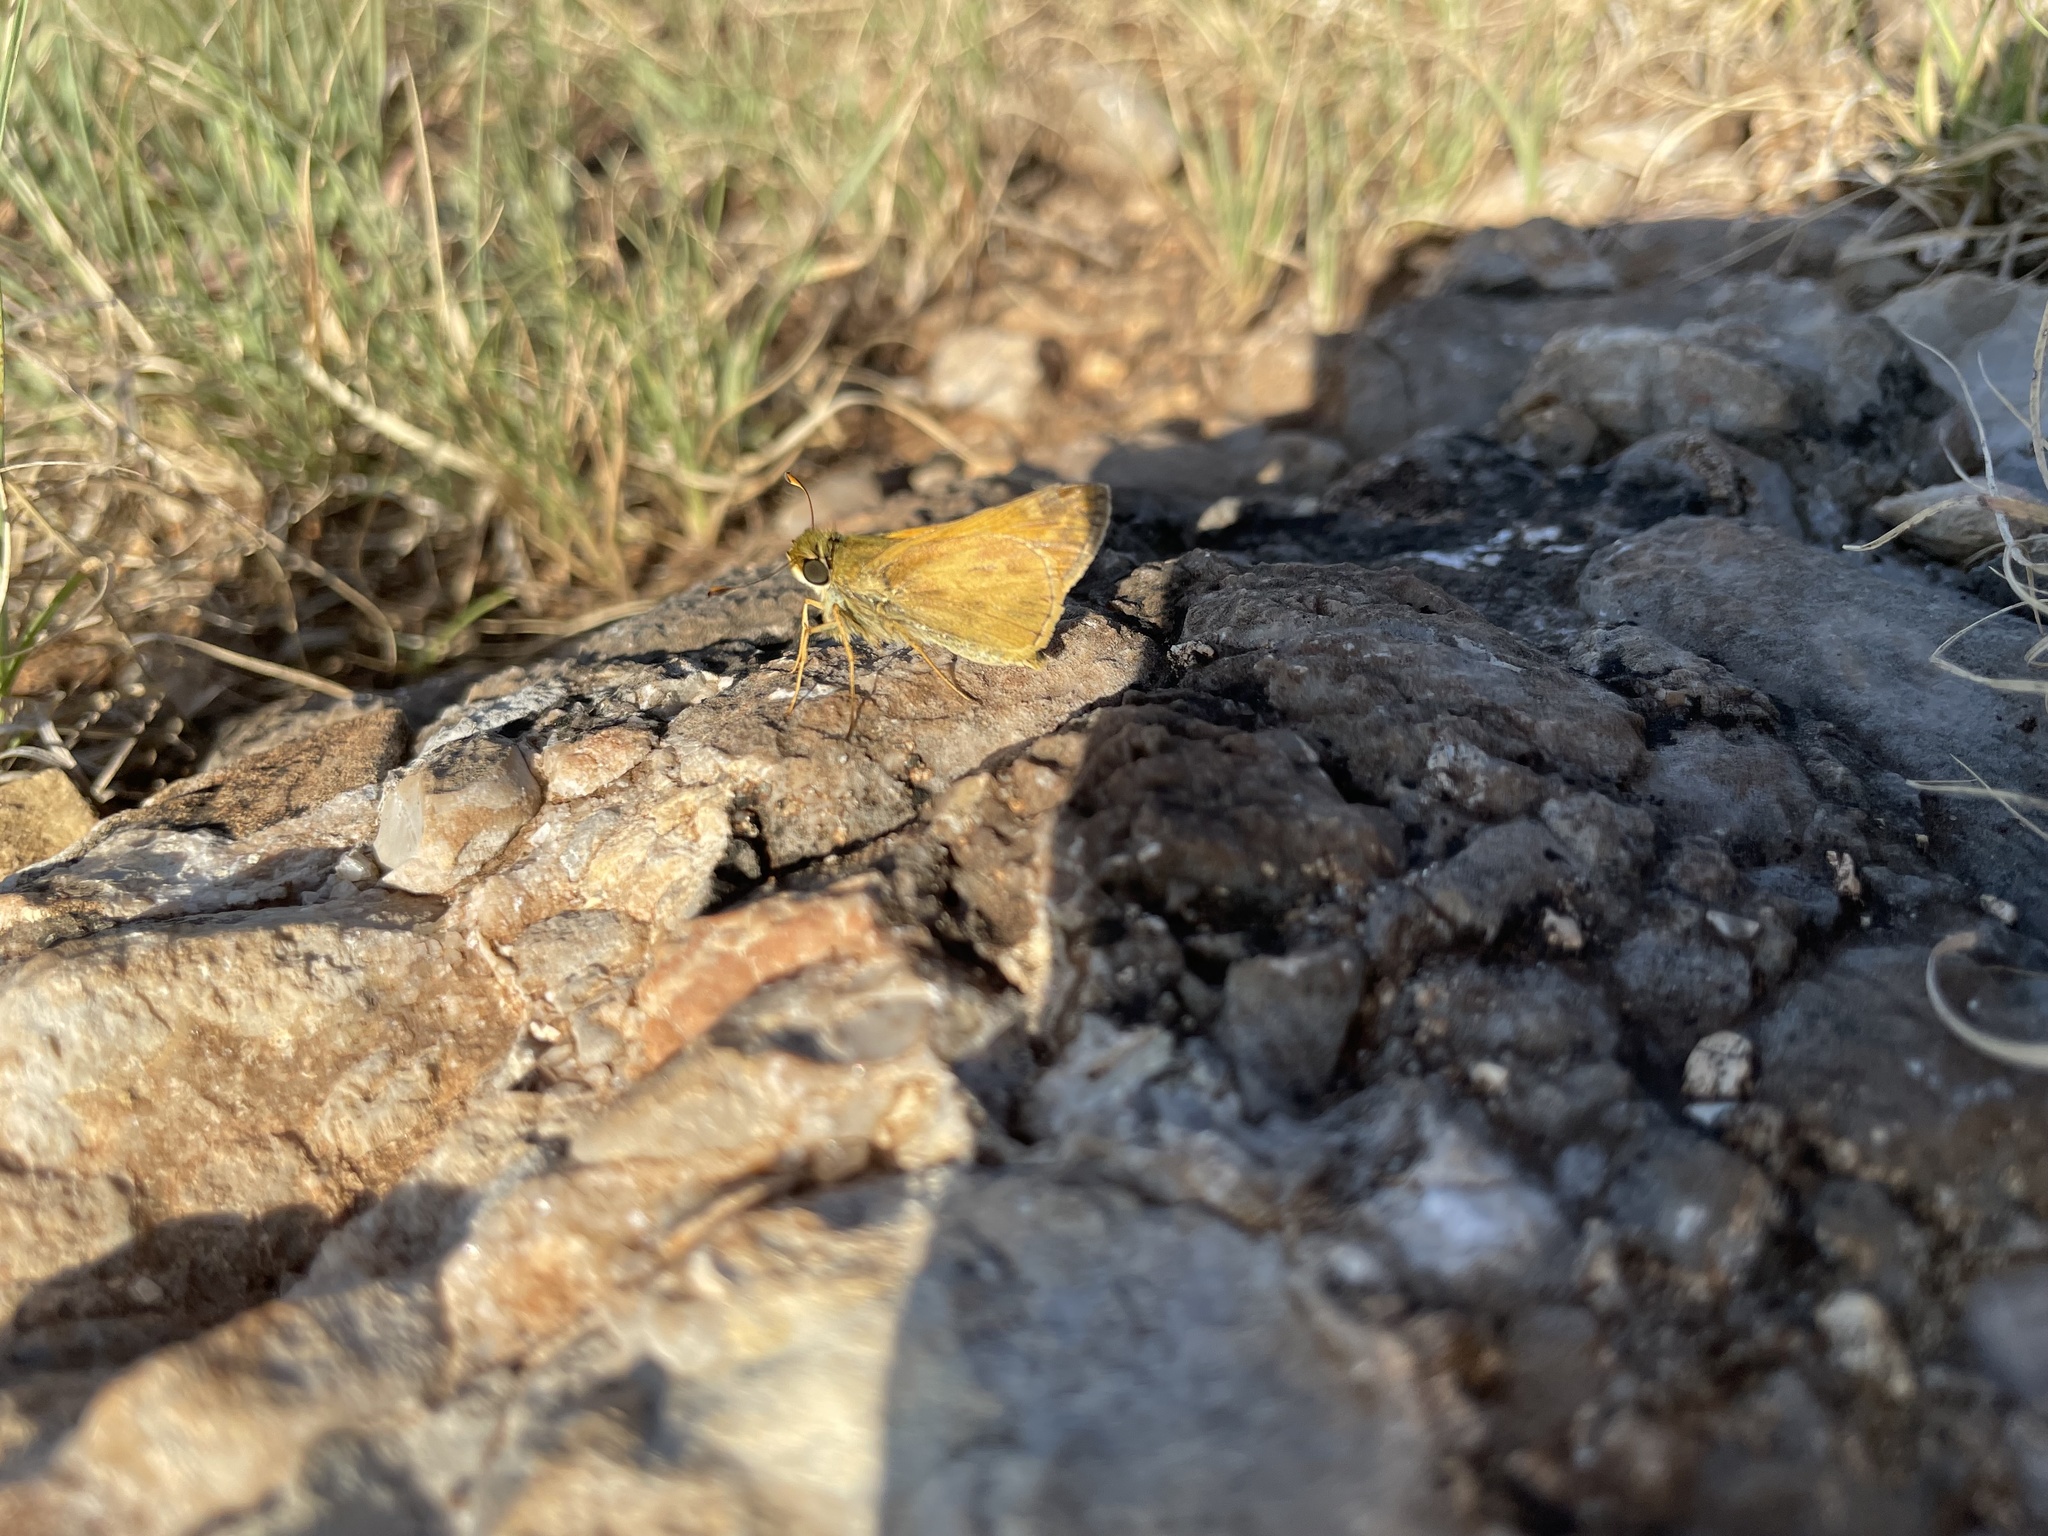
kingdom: Animalia
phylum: Arthropoda
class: Insecta
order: Lepidoptera
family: Hesperiidae
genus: Atalopedes
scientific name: Atalopedes
